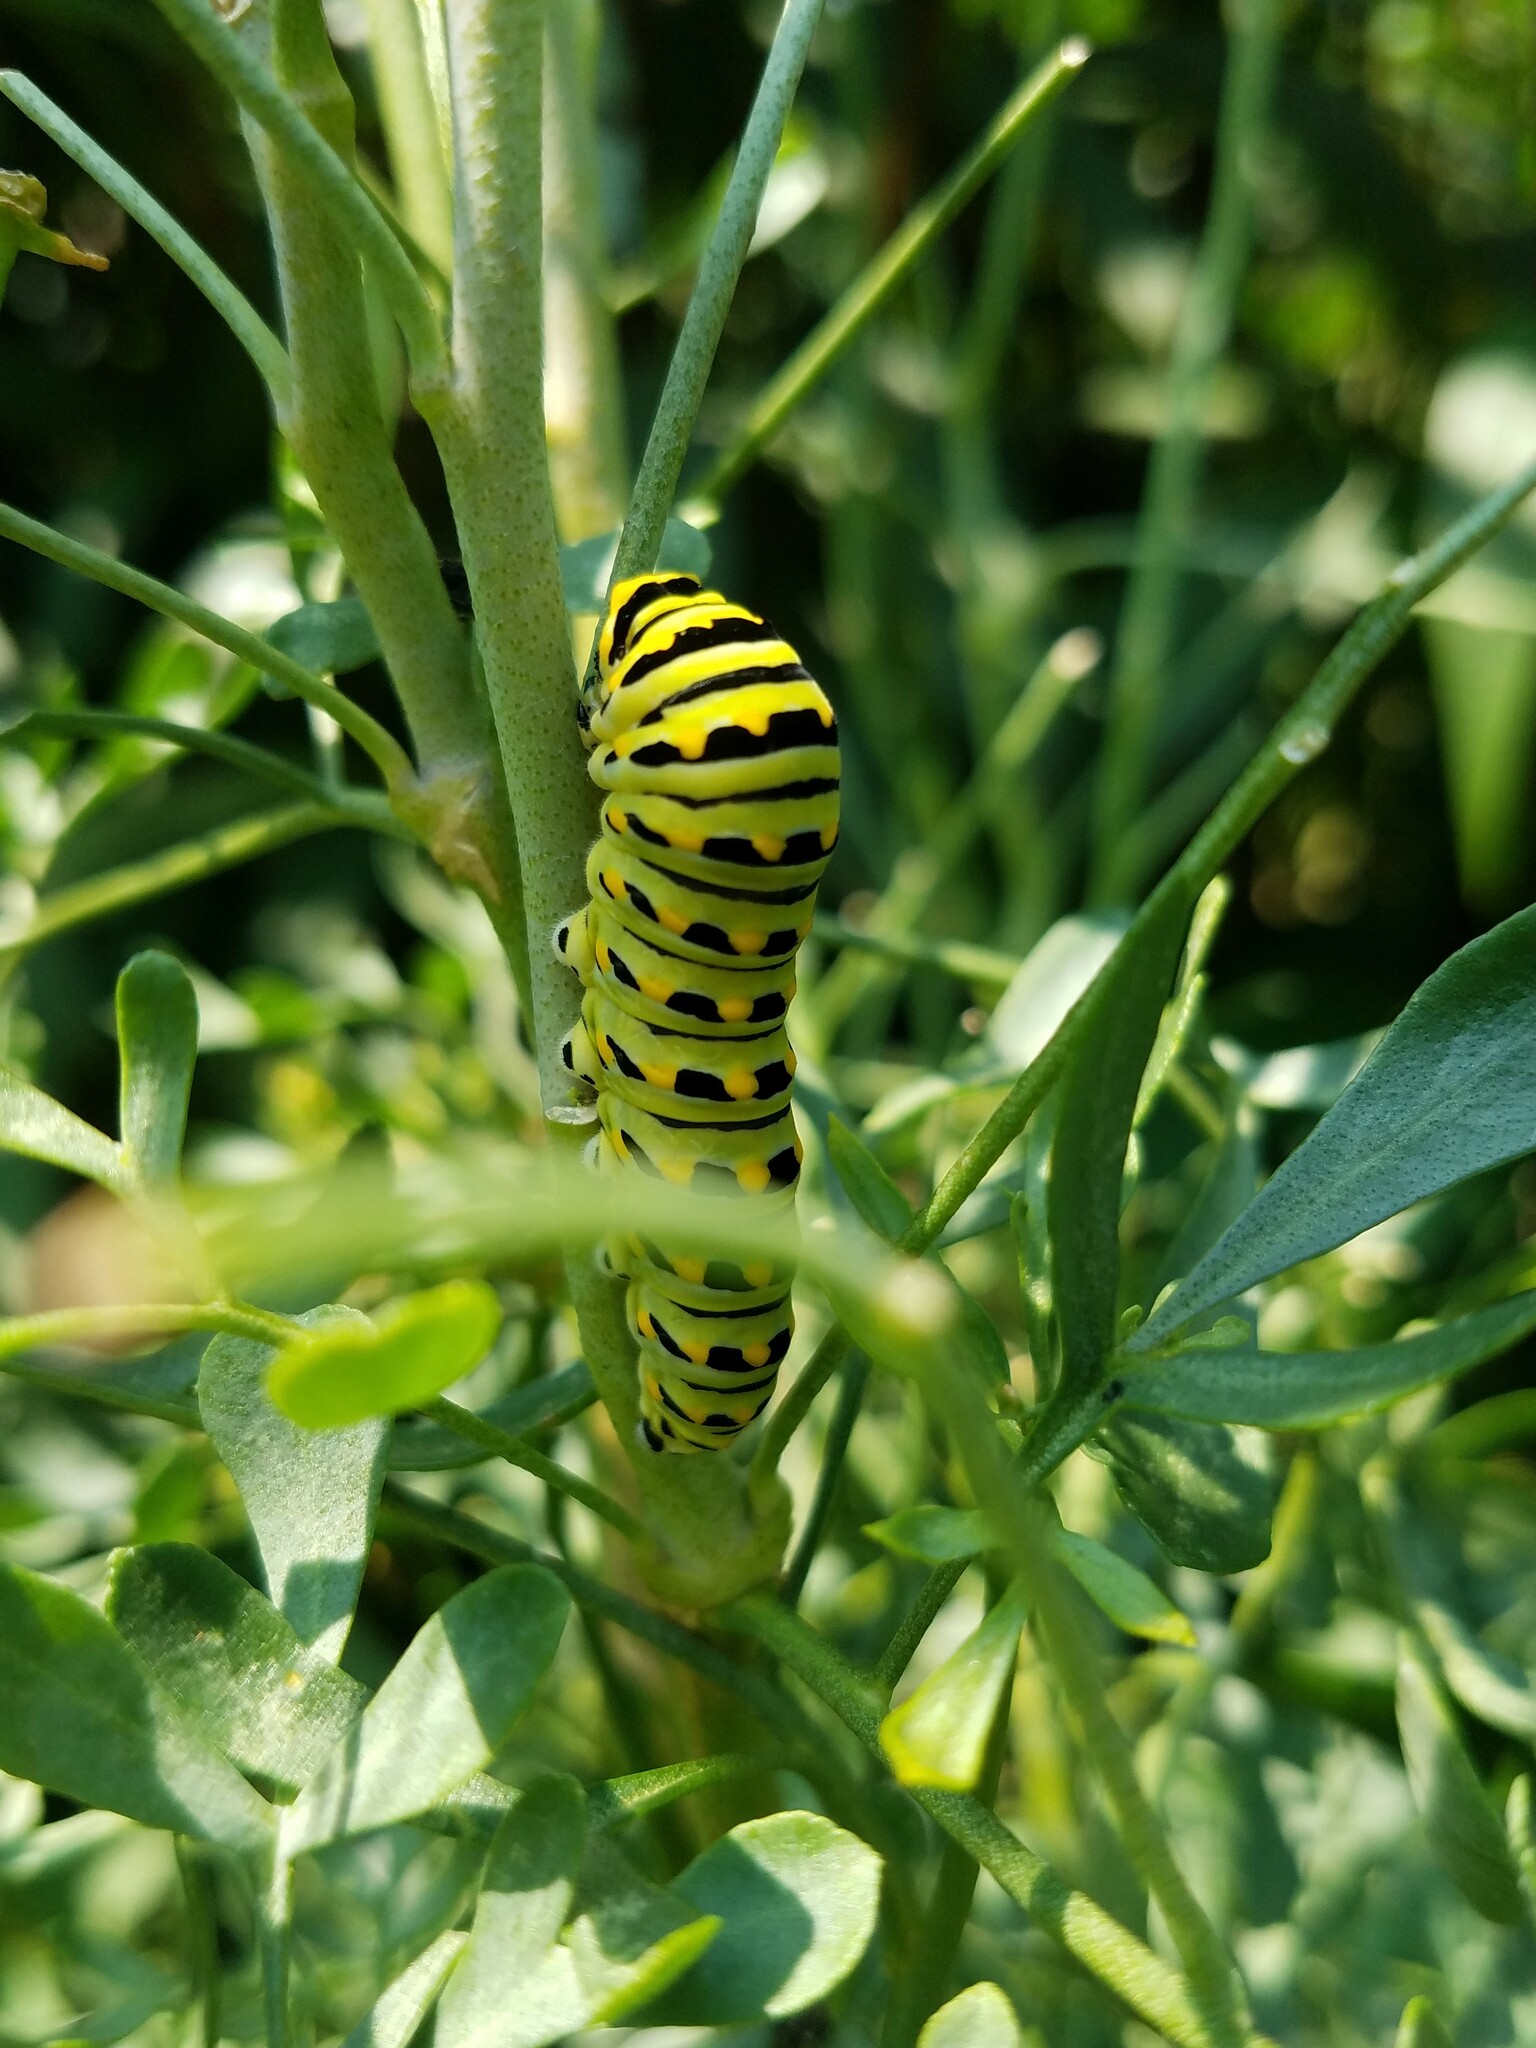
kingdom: Animalia
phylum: Arthropoda
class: Insecta
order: Lepidoptera
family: Papilionidae
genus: Papilio
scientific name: Papilio polyxenes
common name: Black swallowtail
